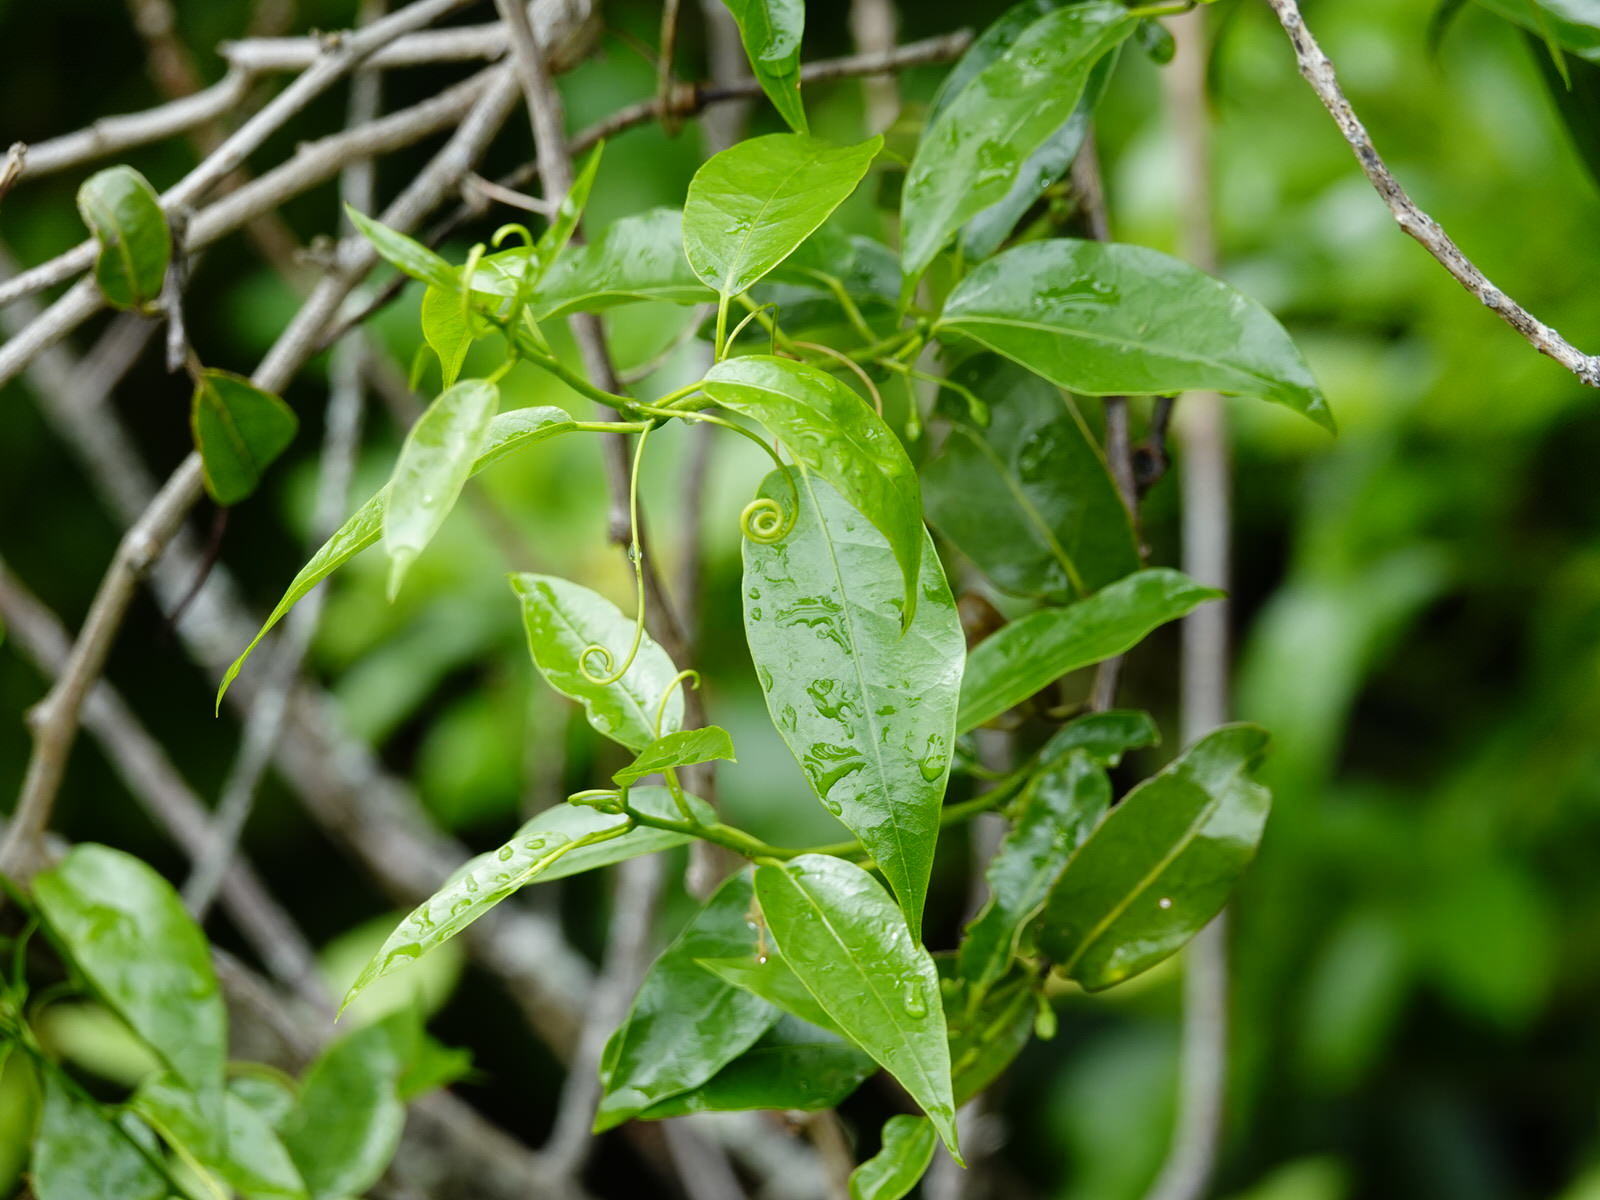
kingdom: Plantae
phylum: Tracheophyta
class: Magnoliopsida
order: Malpighiales
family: Passifloraceae
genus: Passiflora
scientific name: Passiflora tetrandra
